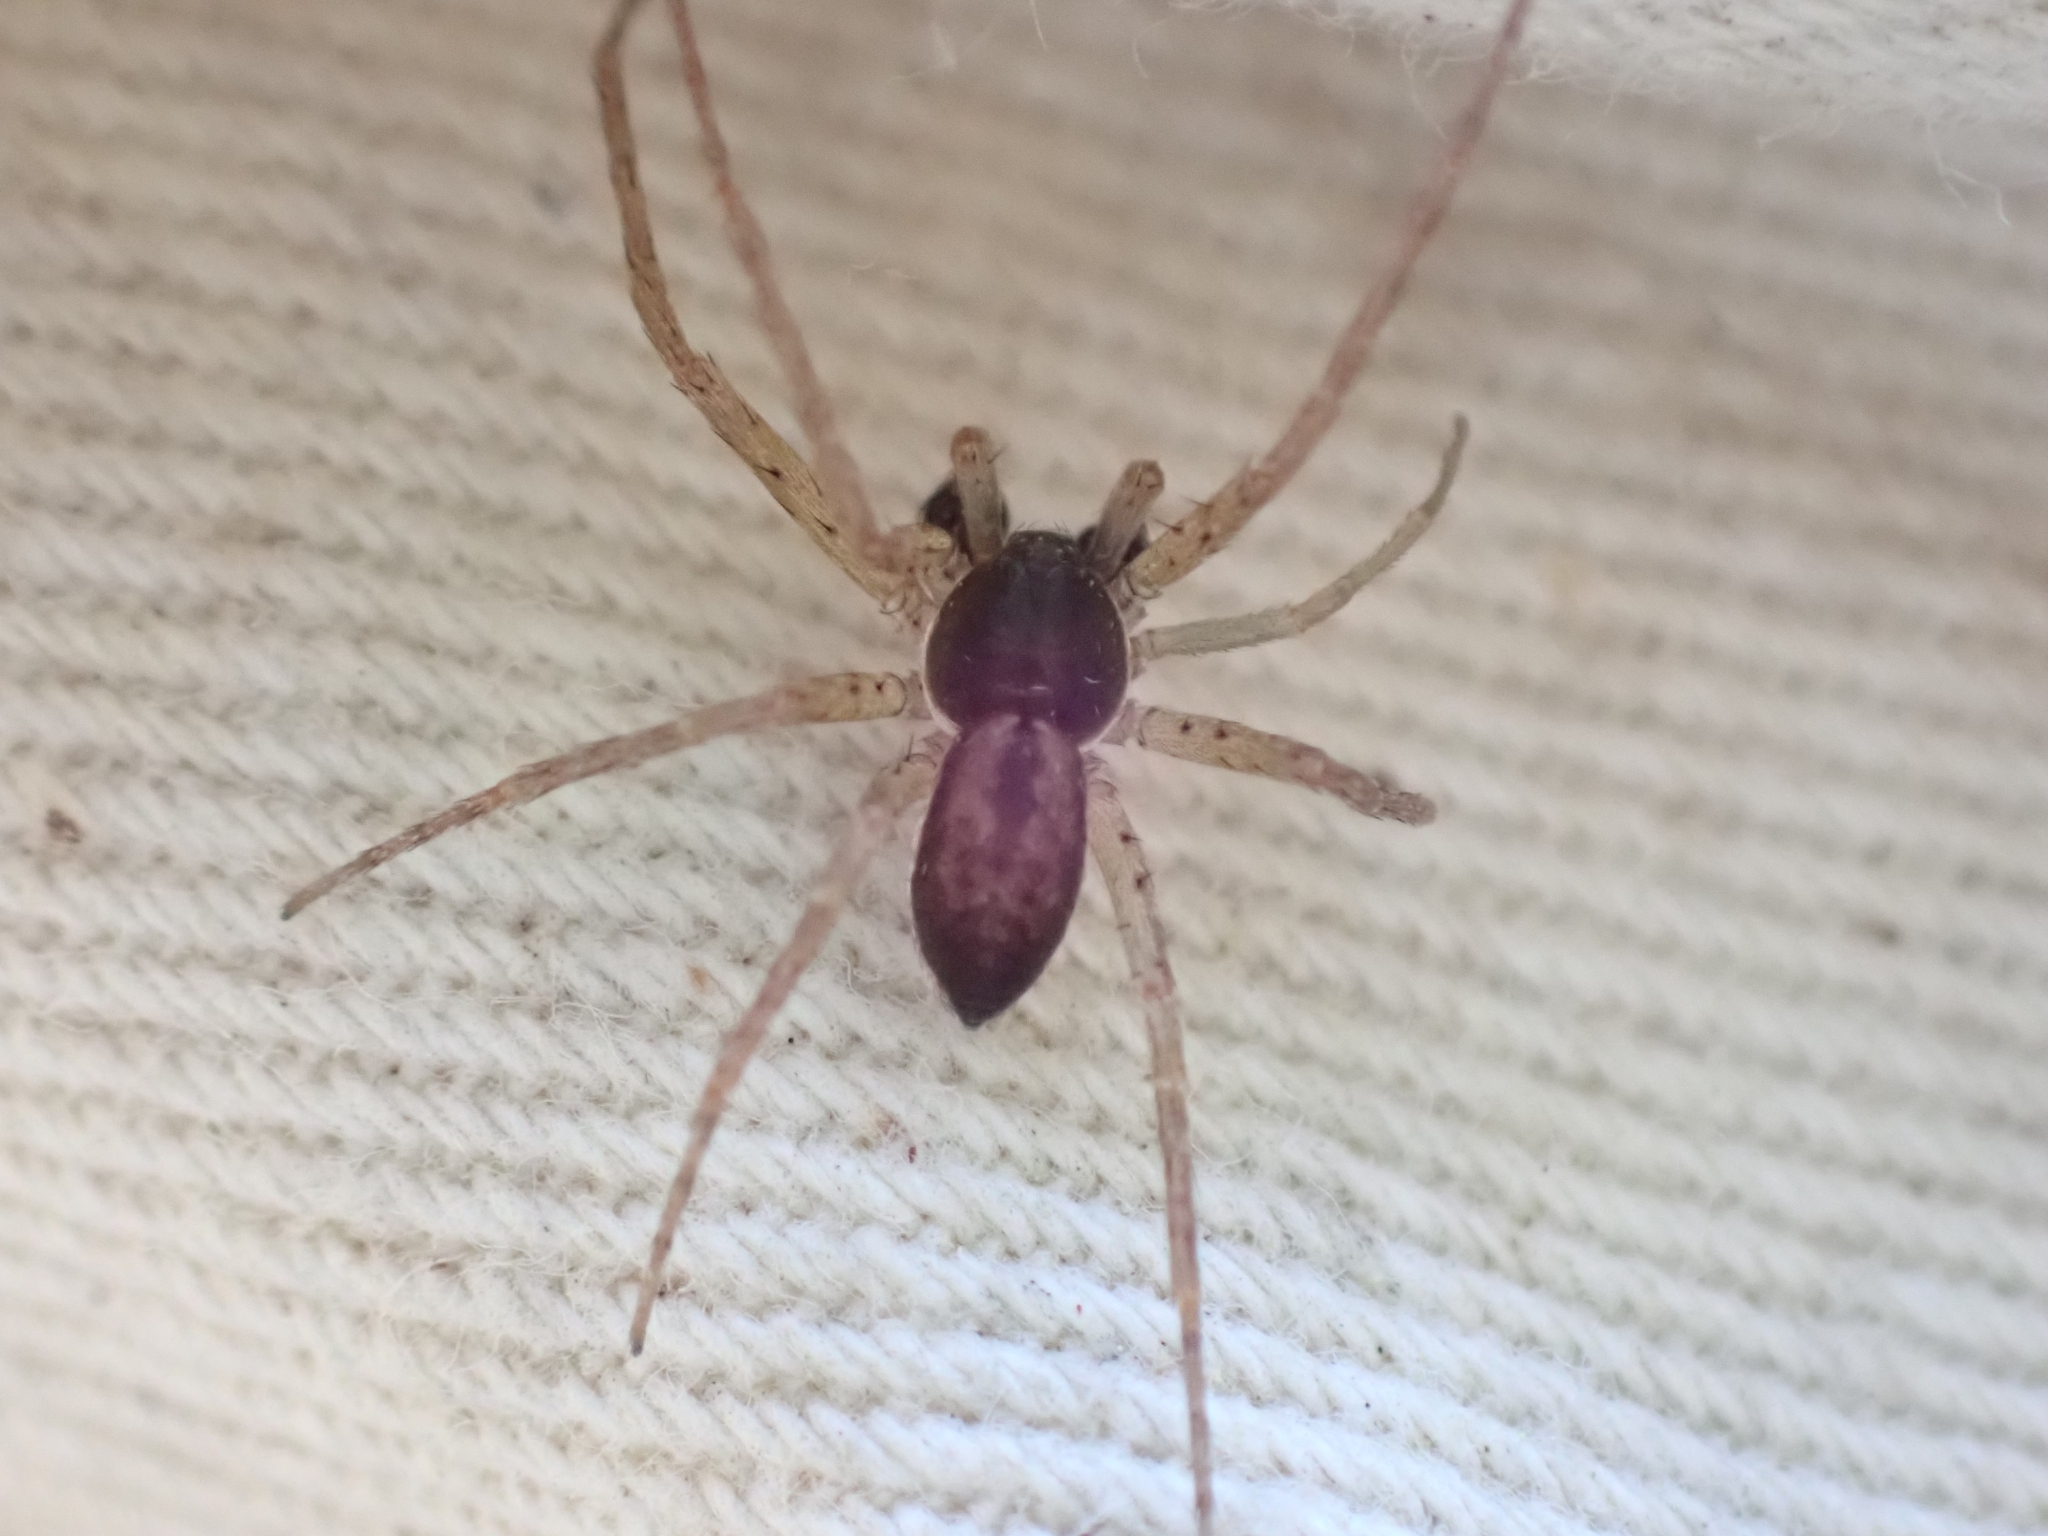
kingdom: Animalia
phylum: Arthropoda
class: Arachnida
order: Araneae
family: Philodromidae
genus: Philodromus
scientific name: Philodromus dispar
